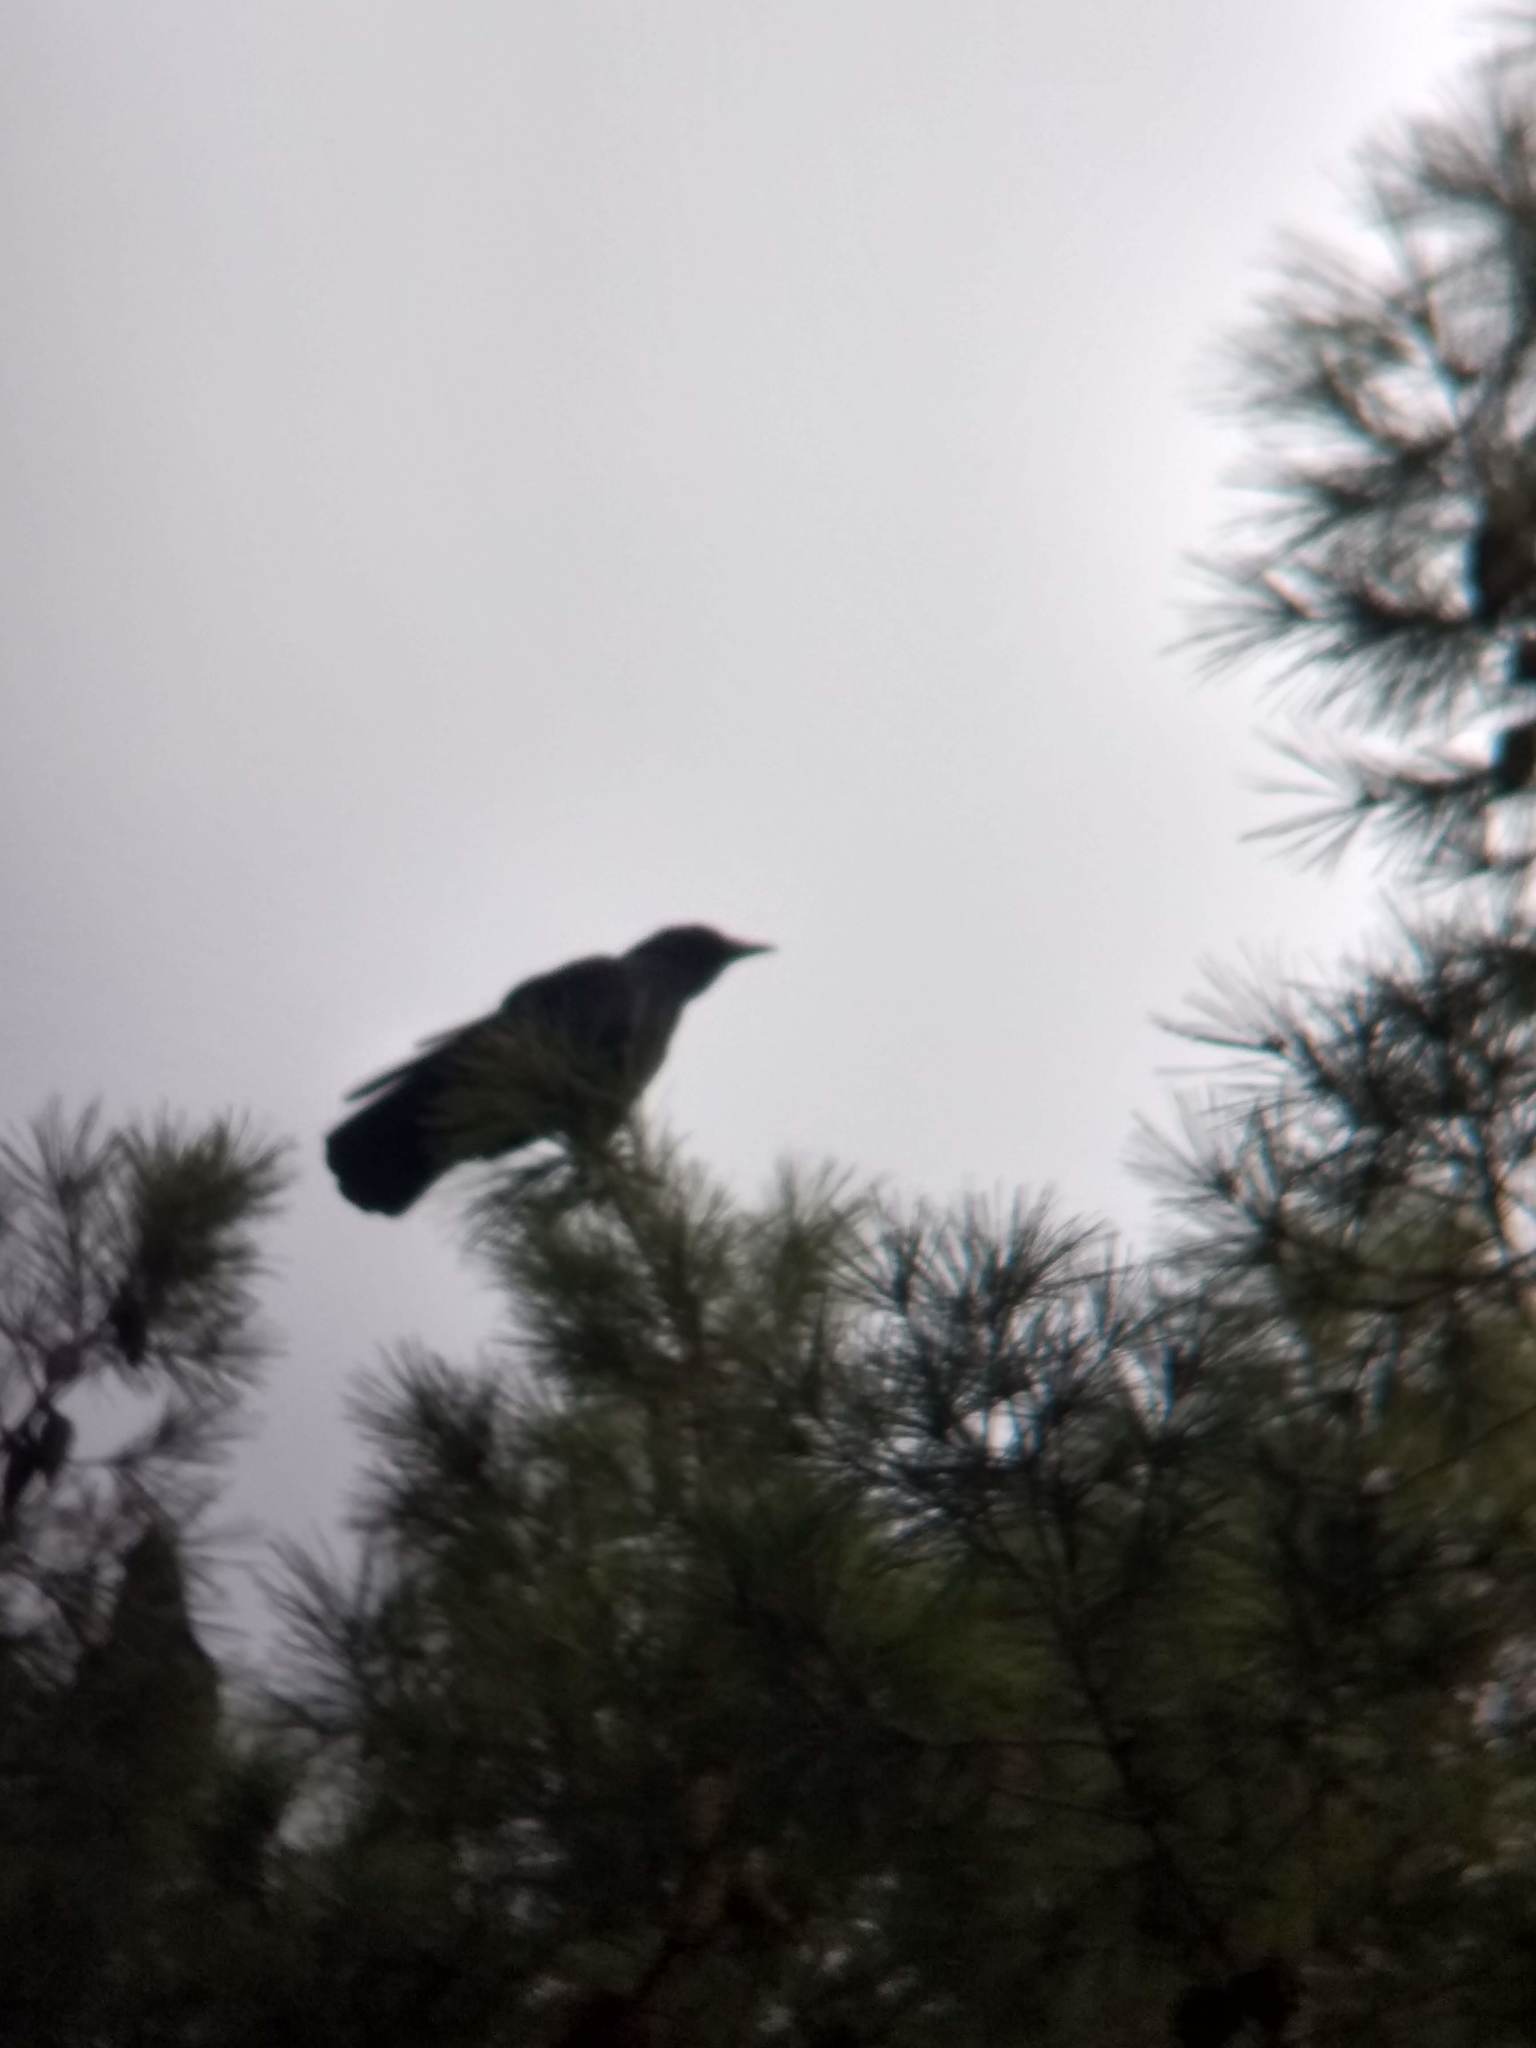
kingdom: Animalia
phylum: Chordata
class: Aves
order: Passeriformes
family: Corvidae
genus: Corvus
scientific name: Corvus brachyrhynchos
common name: American crow
